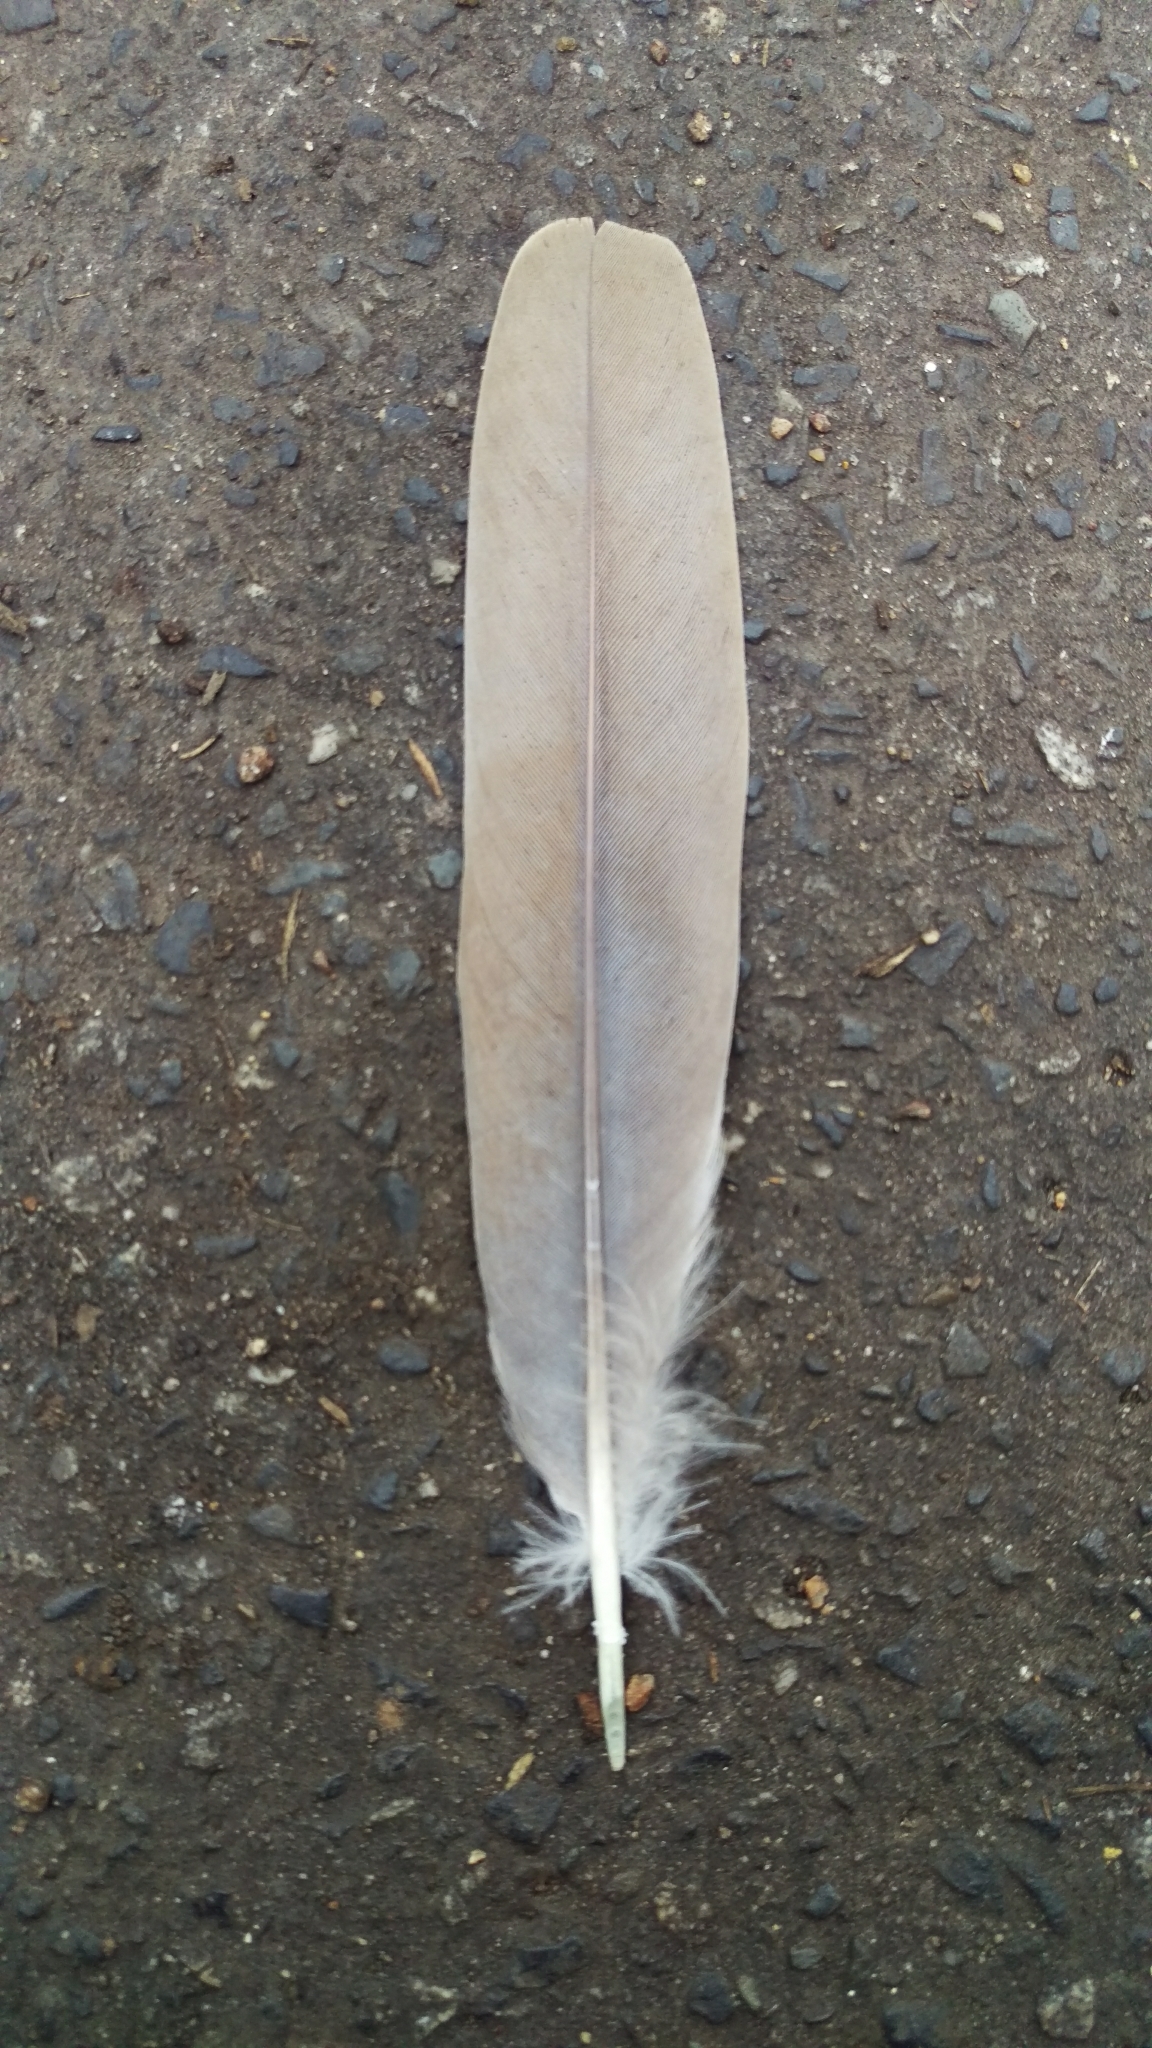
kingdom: Animalia
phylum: Chordata
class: Aves
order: Columbiformes
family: Columbidae
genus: Streptopelia
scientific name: Streptopelia decaocto
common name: Eurasian collared dove
